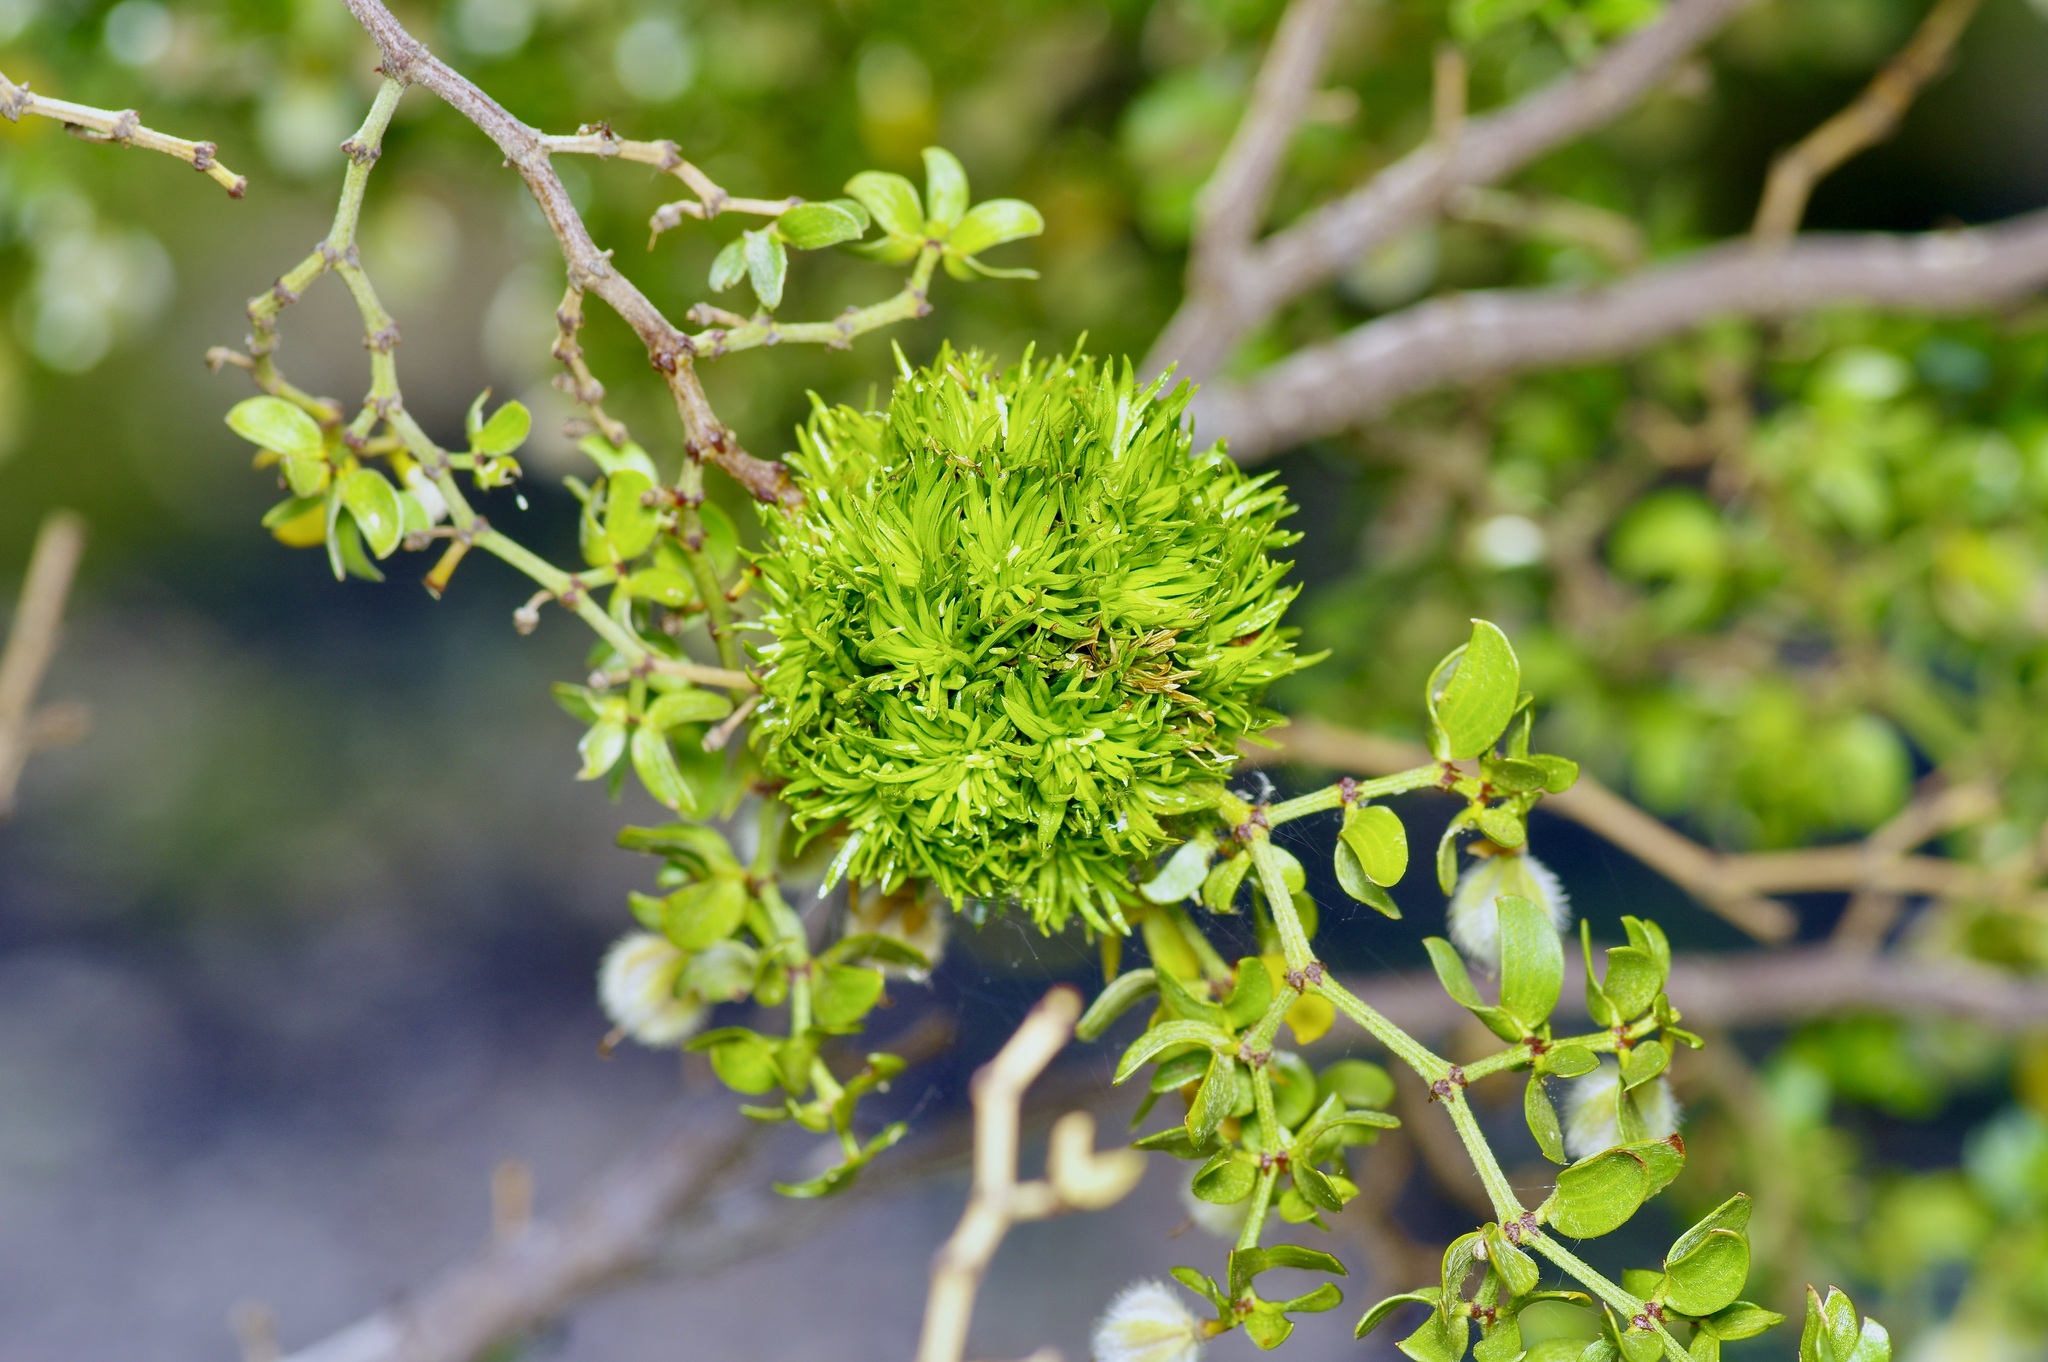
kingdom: Animalia
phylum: Arthropoda
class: Insecta
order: Diptera
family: Cecidomyiidae
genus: Asphondylia
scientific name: Asphondylia auripila
